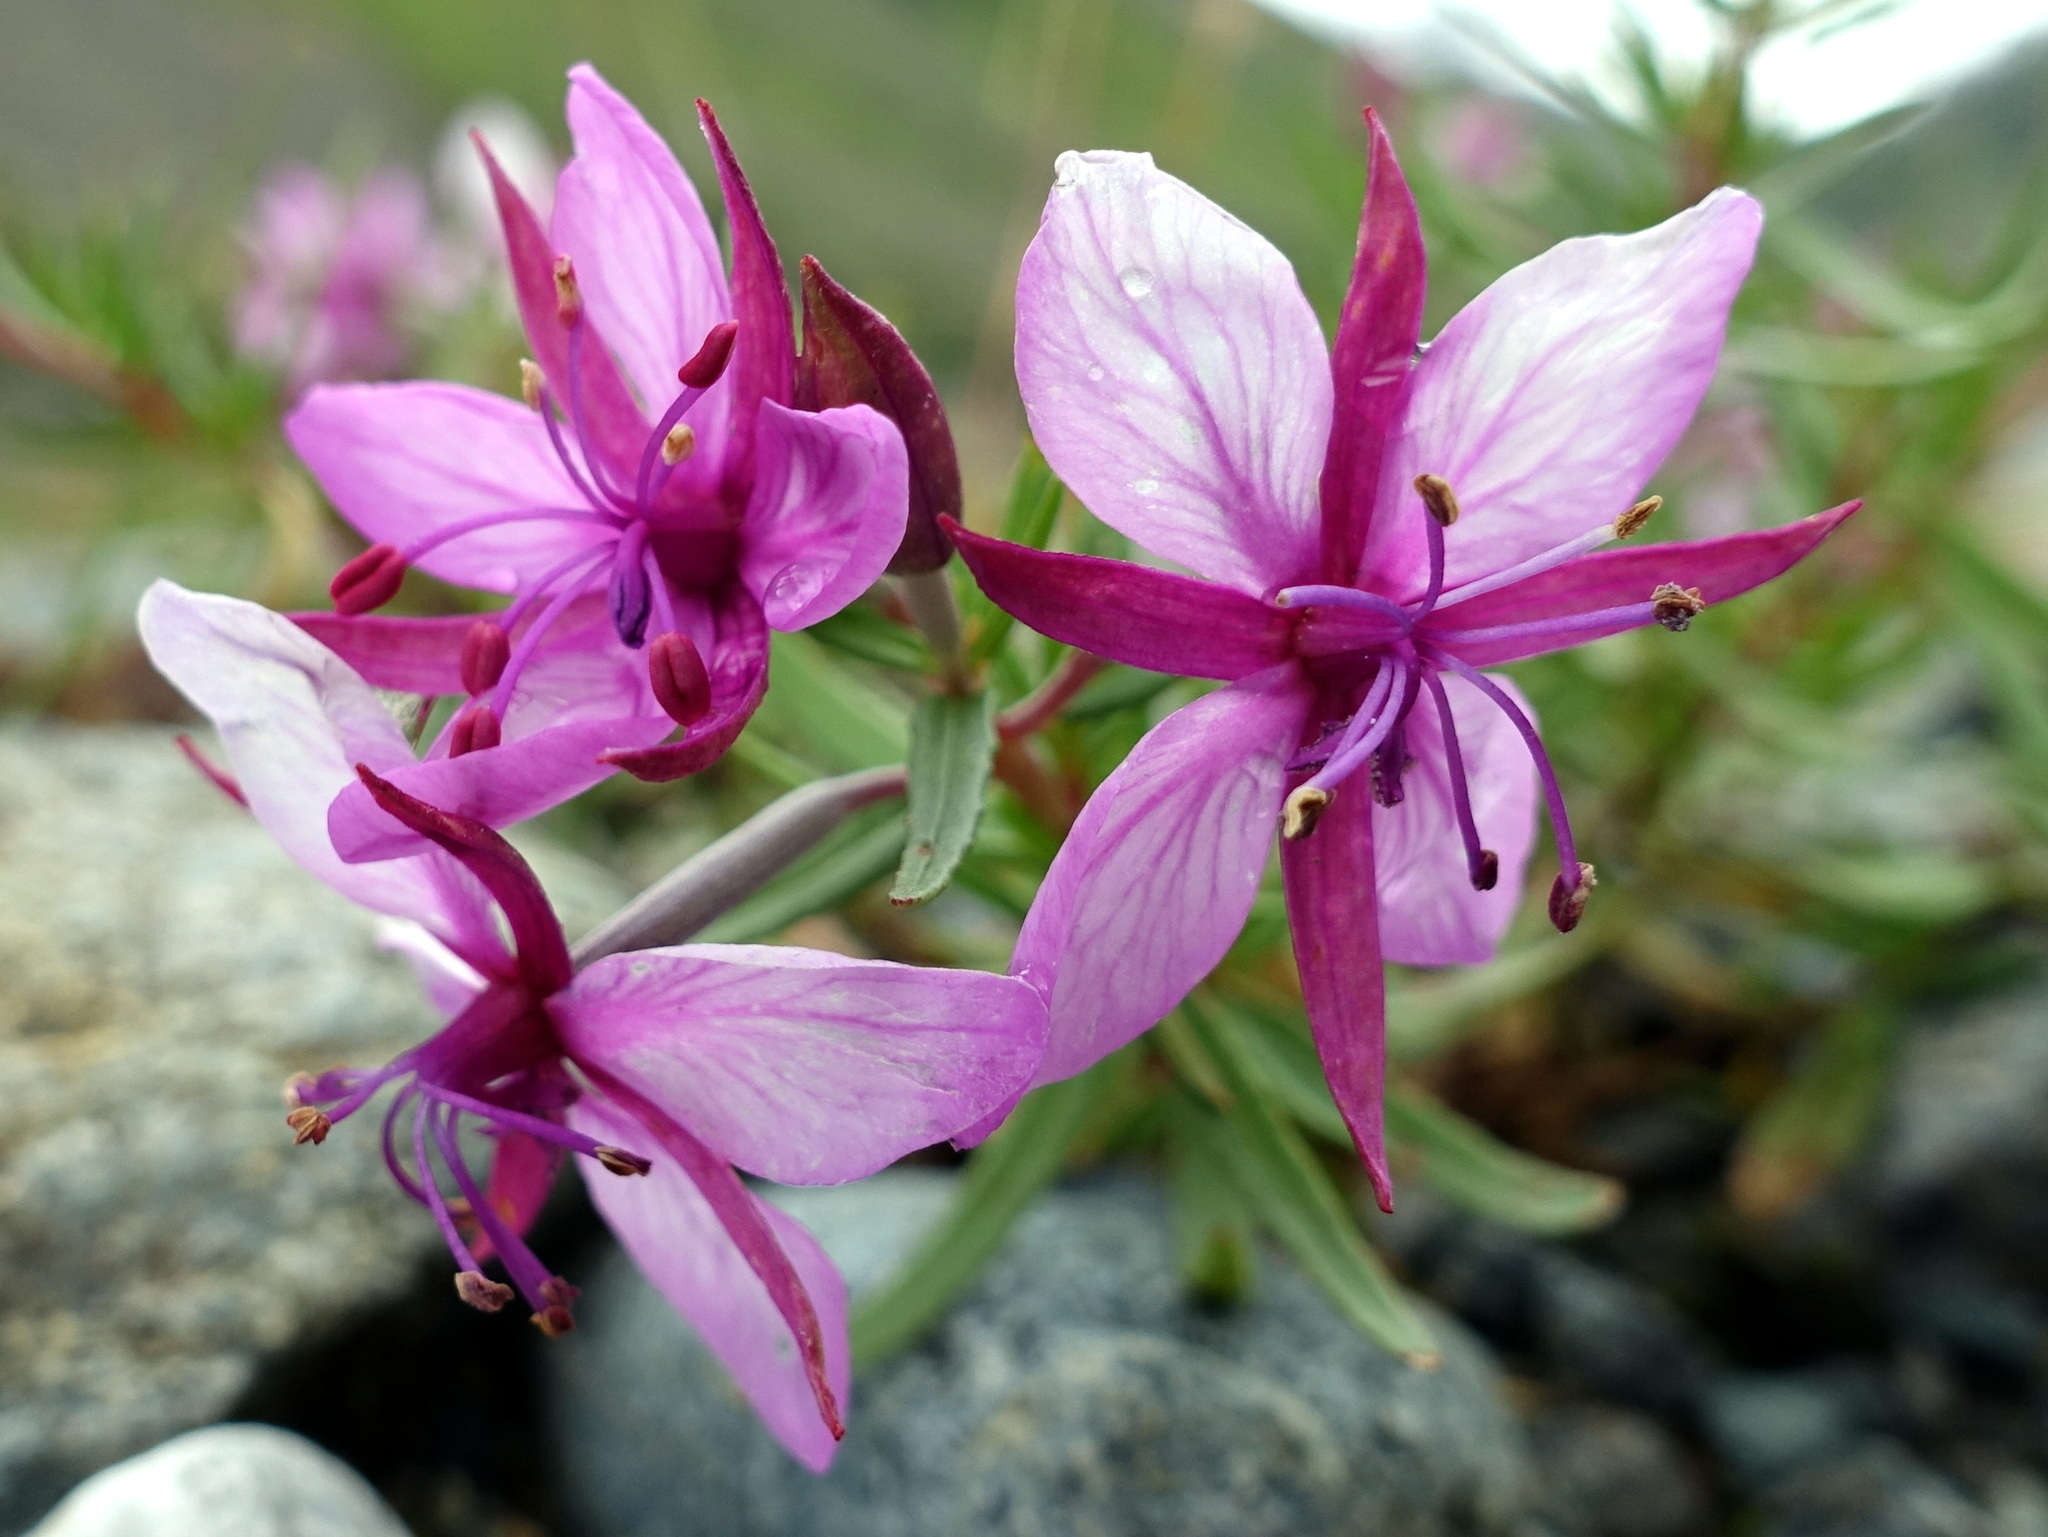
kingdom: Plantae
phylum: Tracheophyta
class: Magnoliopsida
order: Myrtales
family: Onagraceae
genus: Chamaenerion
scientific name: Chamaenerion fleischeri
